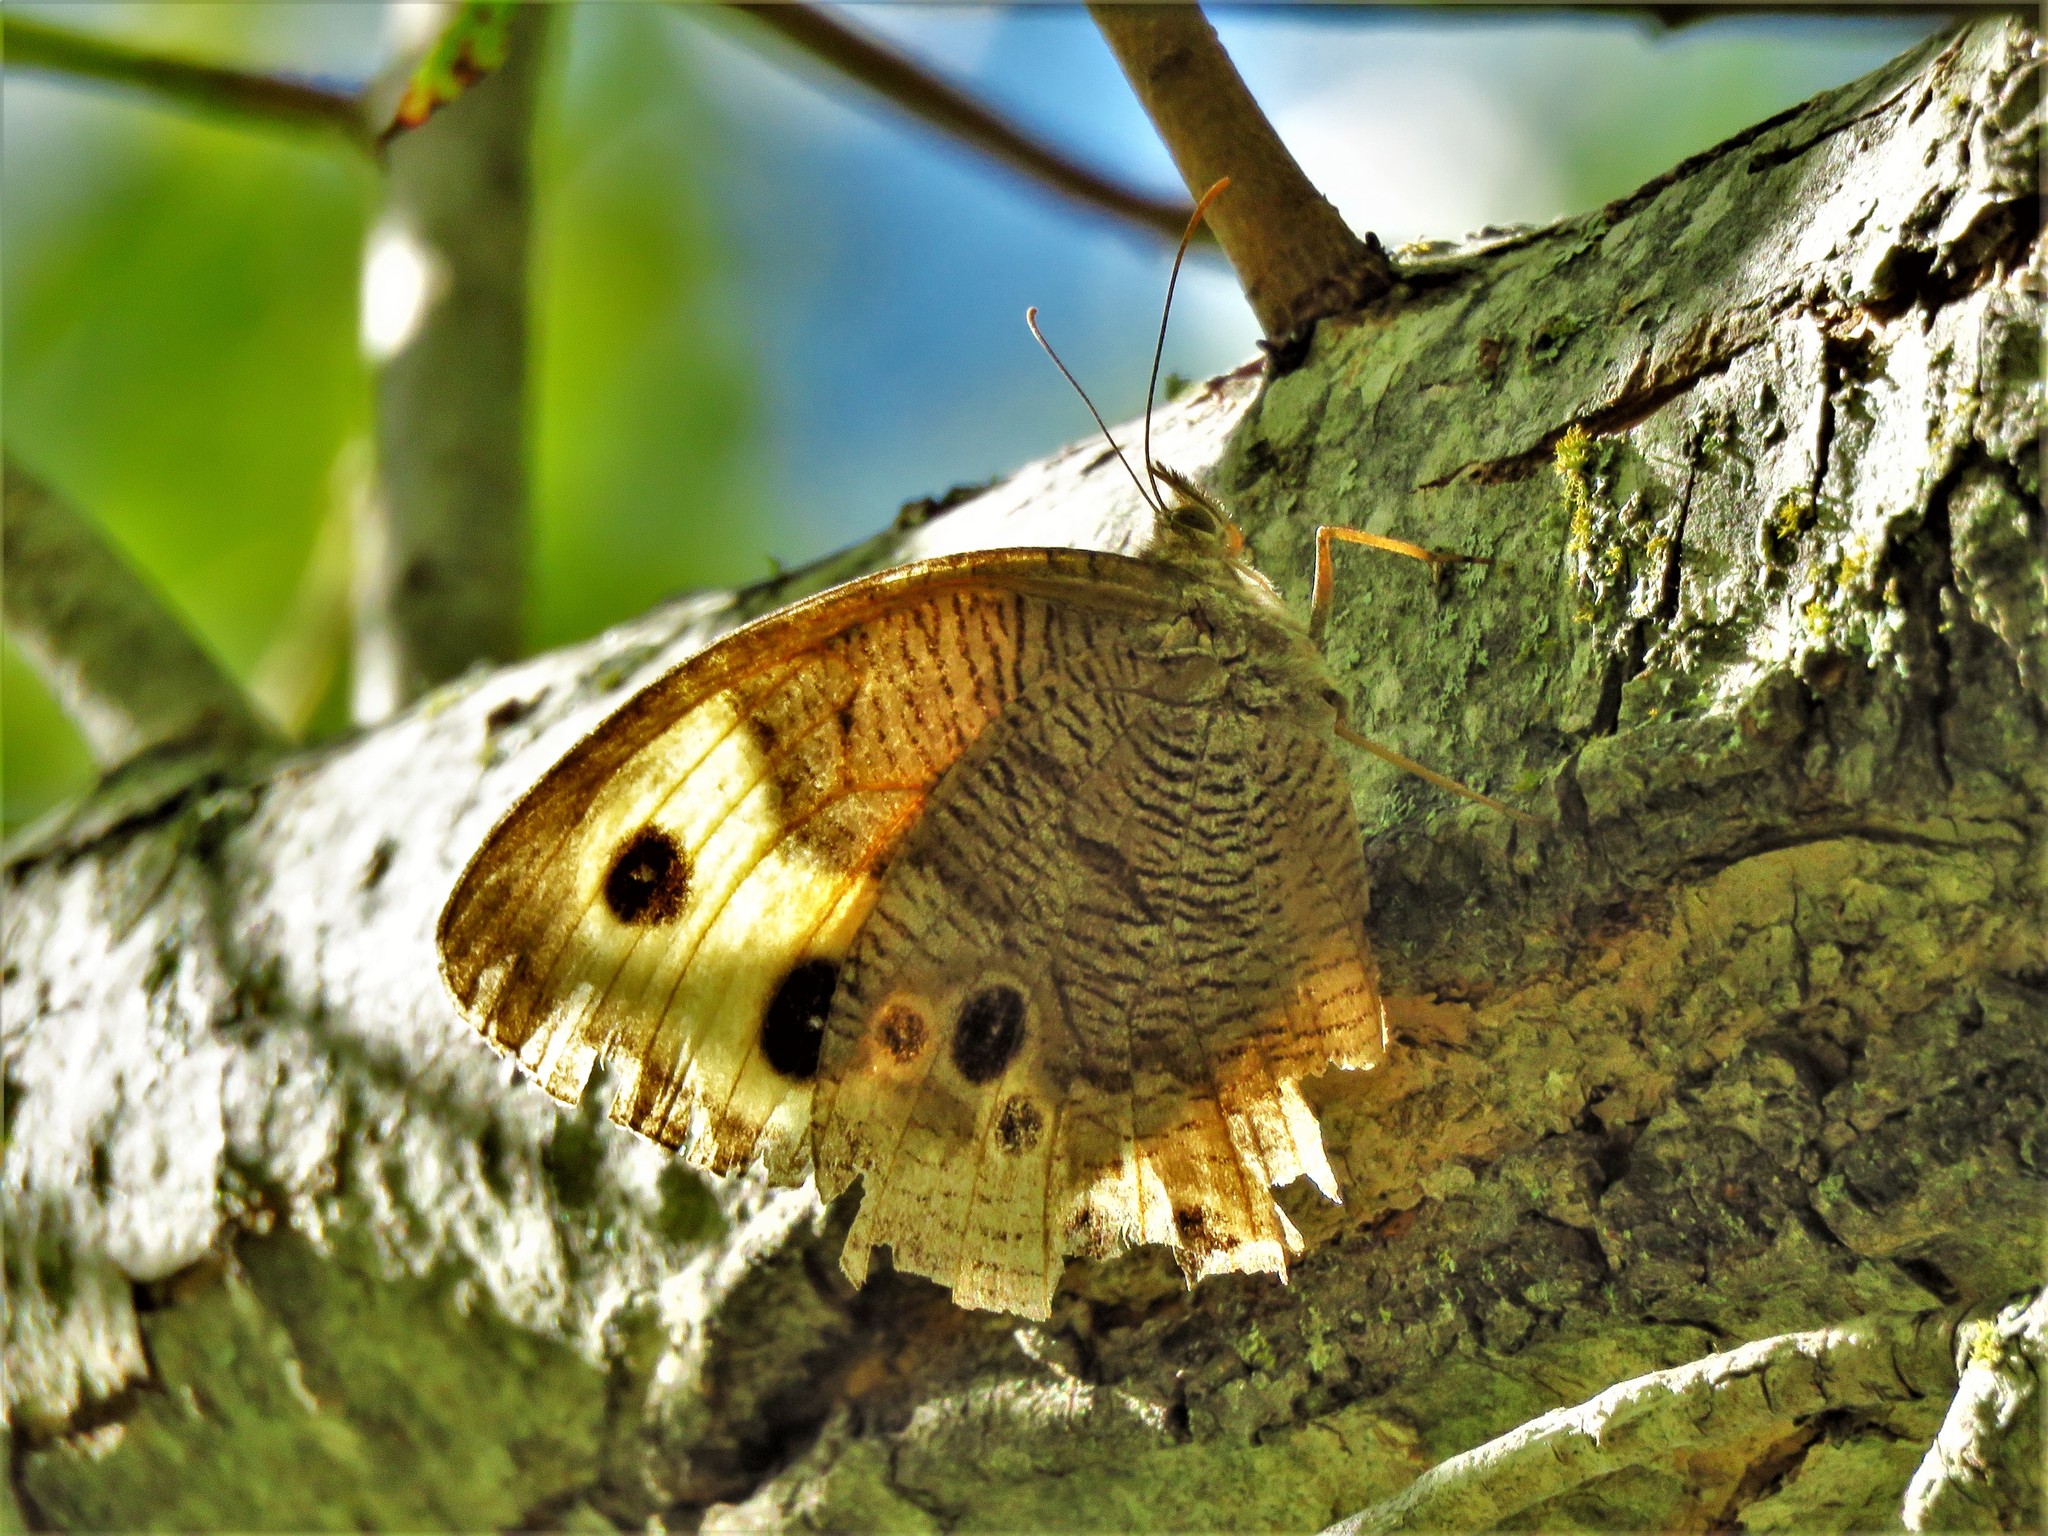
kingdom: Animalia
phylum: Arthropoda
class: Insecta
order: Lepidoptera
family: Nymphalidae
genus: Cercyonis
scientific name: Cercyonis pegala
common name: Common wood-nymph
